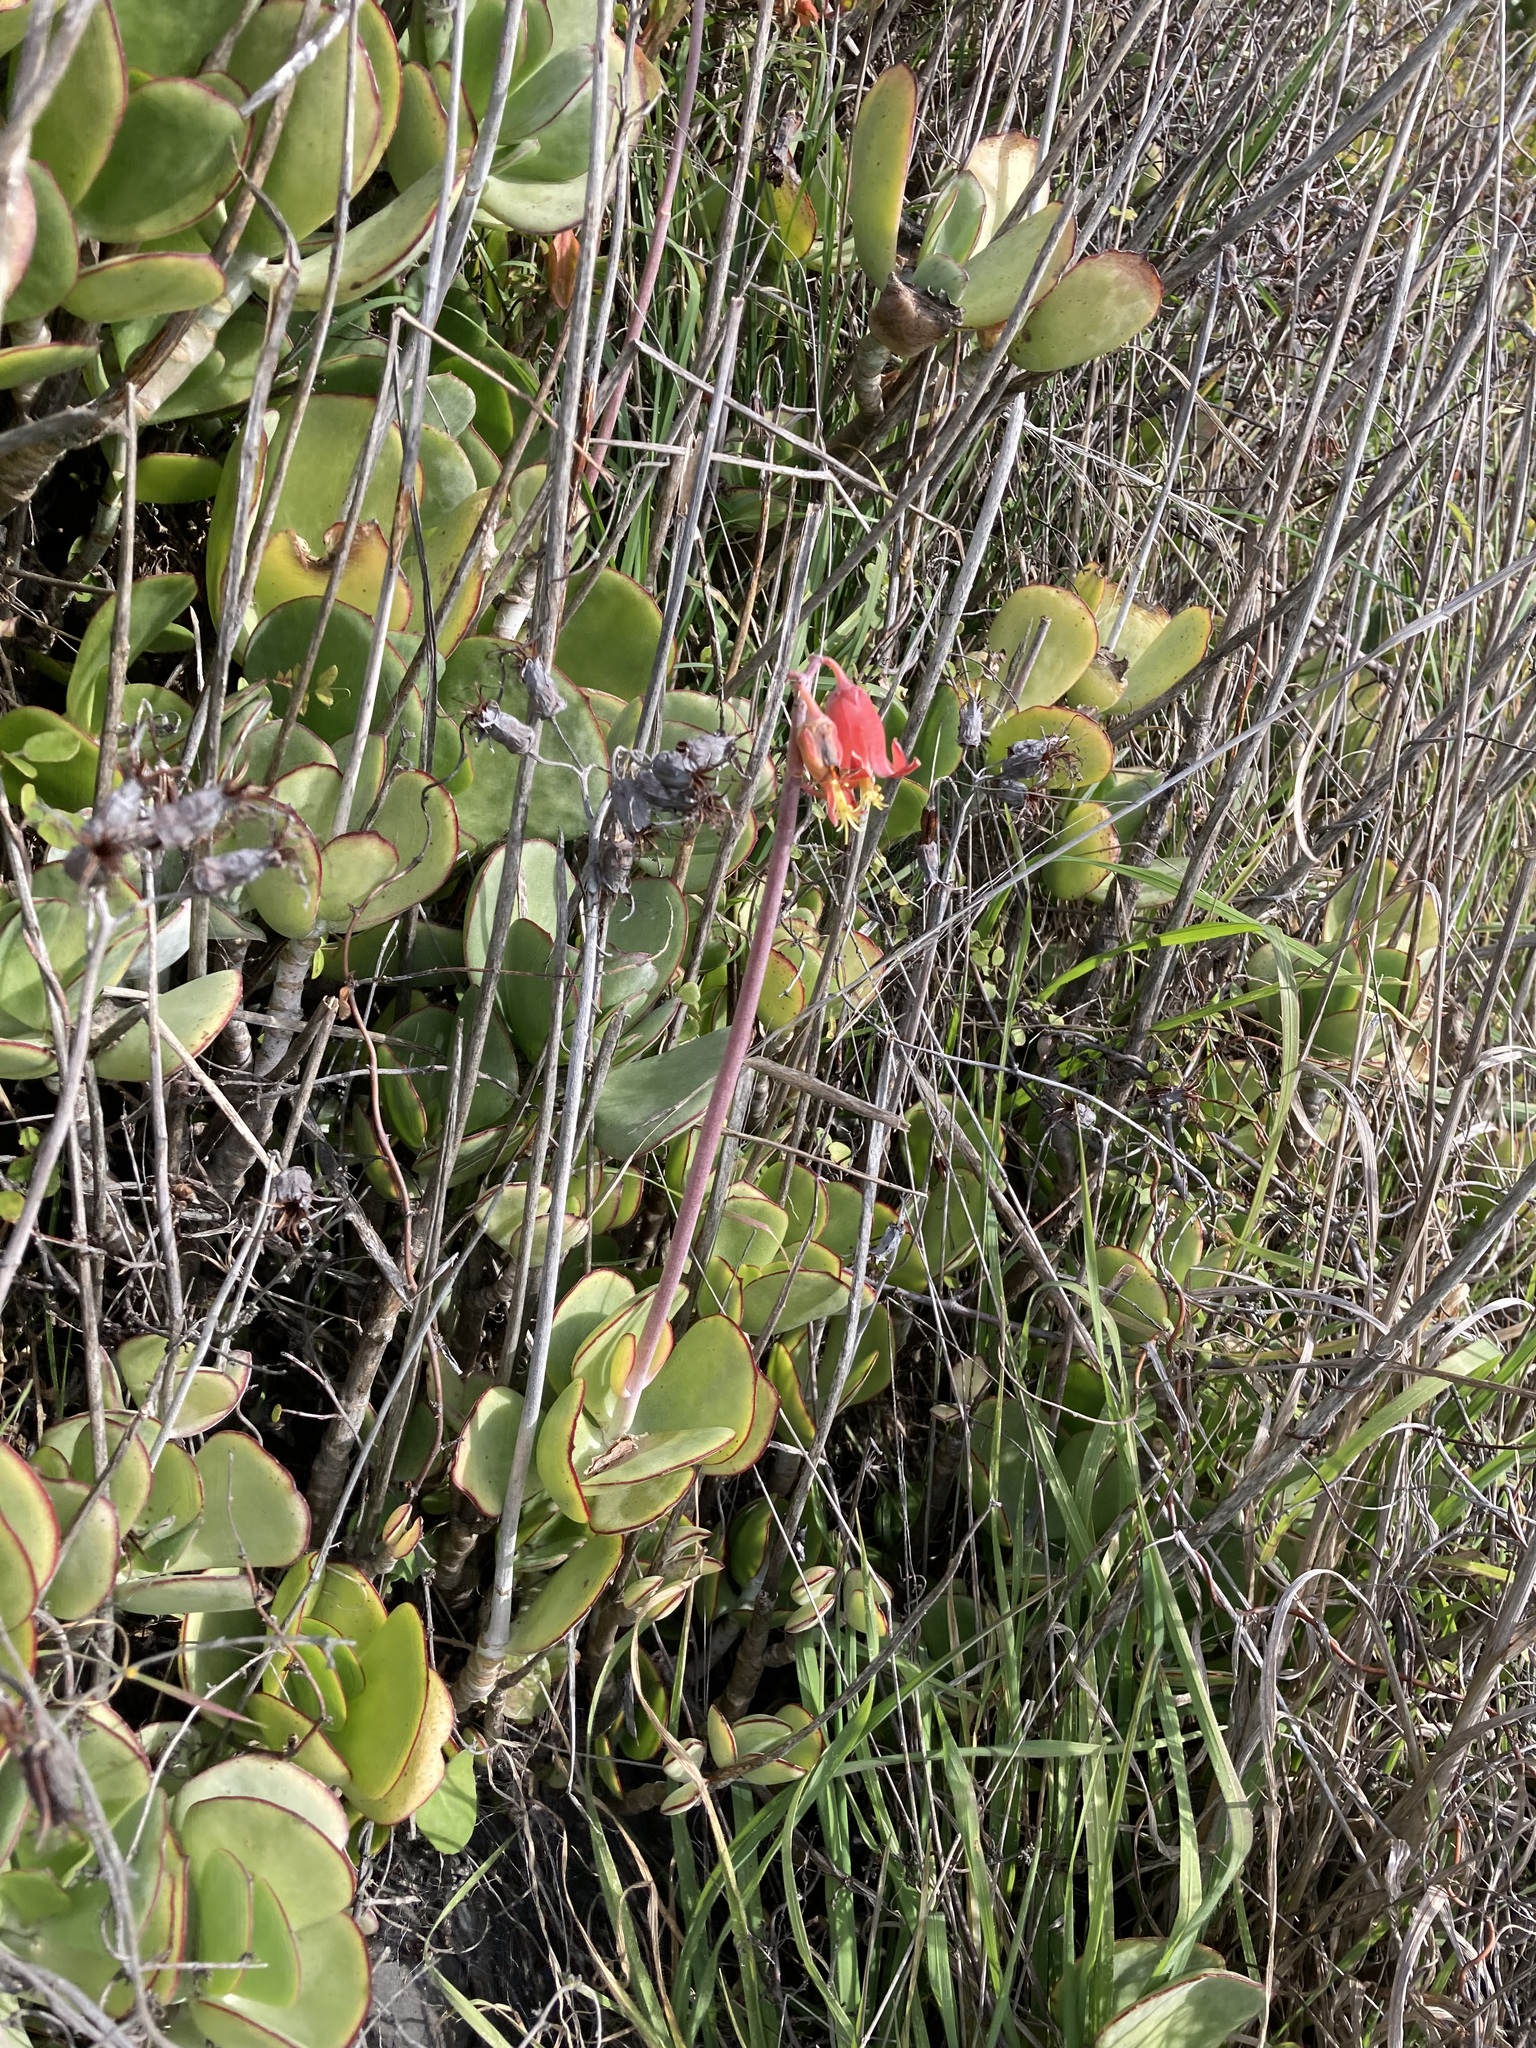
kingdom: Plantae
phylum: Tracheophyta
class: Magnoliopsida
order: Saxifragales
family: Crassulaceae
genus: Cotyledon
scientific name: Cotyledon orbiculata
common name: Pig's ear
